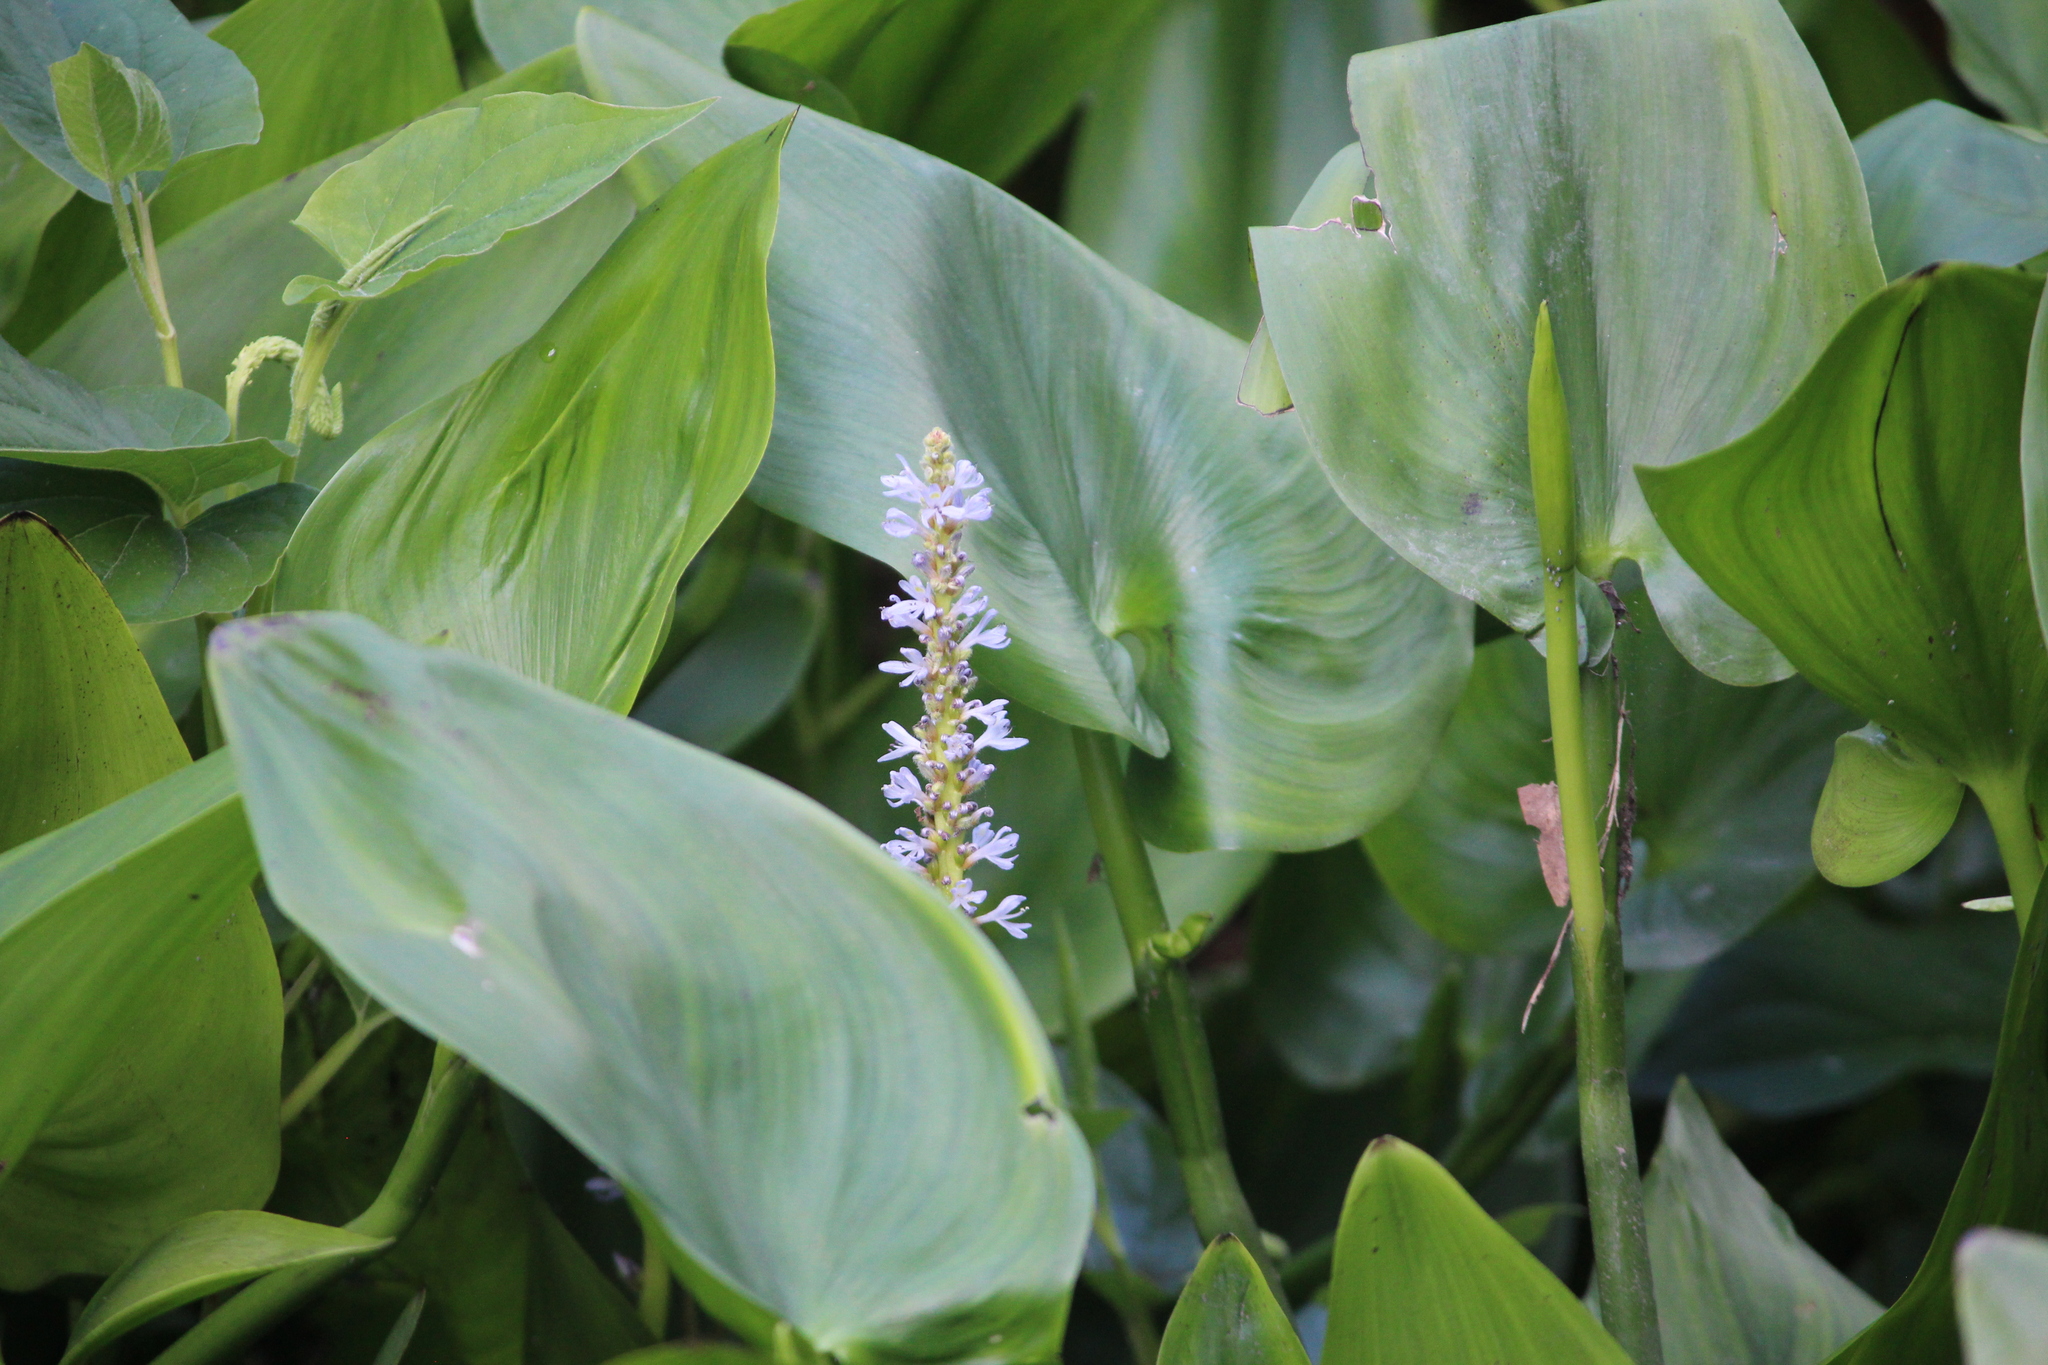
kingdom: Plantae
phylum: Tracheophyta
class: Liliopsida
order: Commelinales
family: Pontederiaceae
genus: Pontederia
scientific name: Pontederia cordata
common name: Pickerelweed
